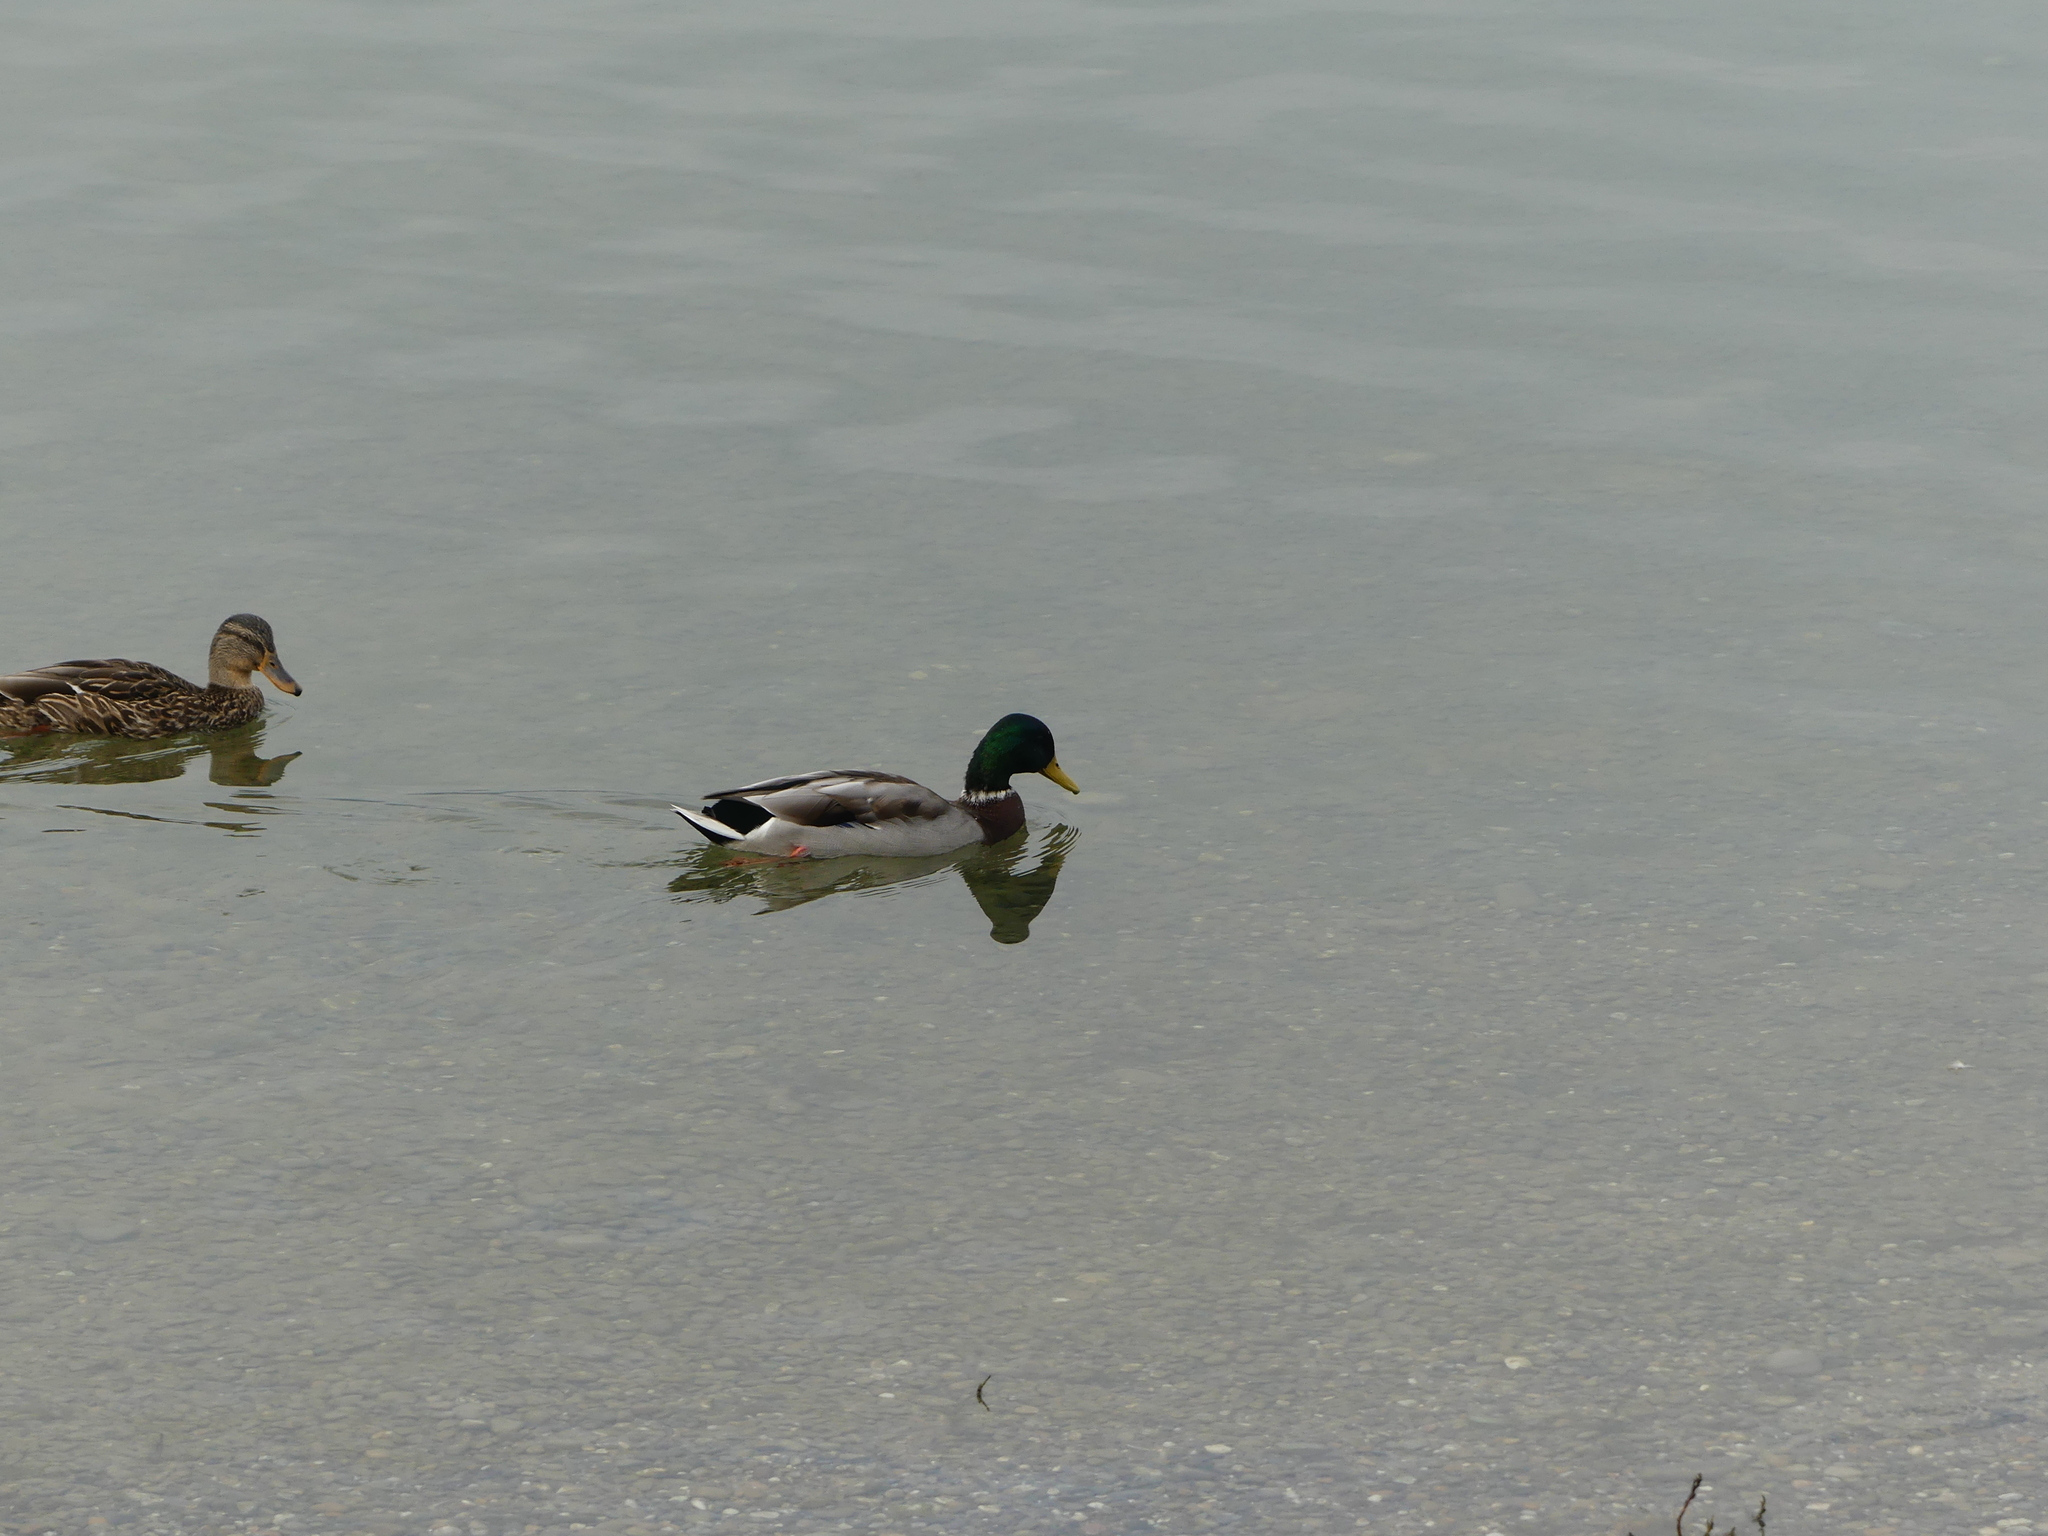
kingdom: Animalia
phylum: Chordata
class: Aves
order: Anseriformes
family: Anatidae
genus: Anas
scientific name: Anas platyrhynchos
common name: Mallard
